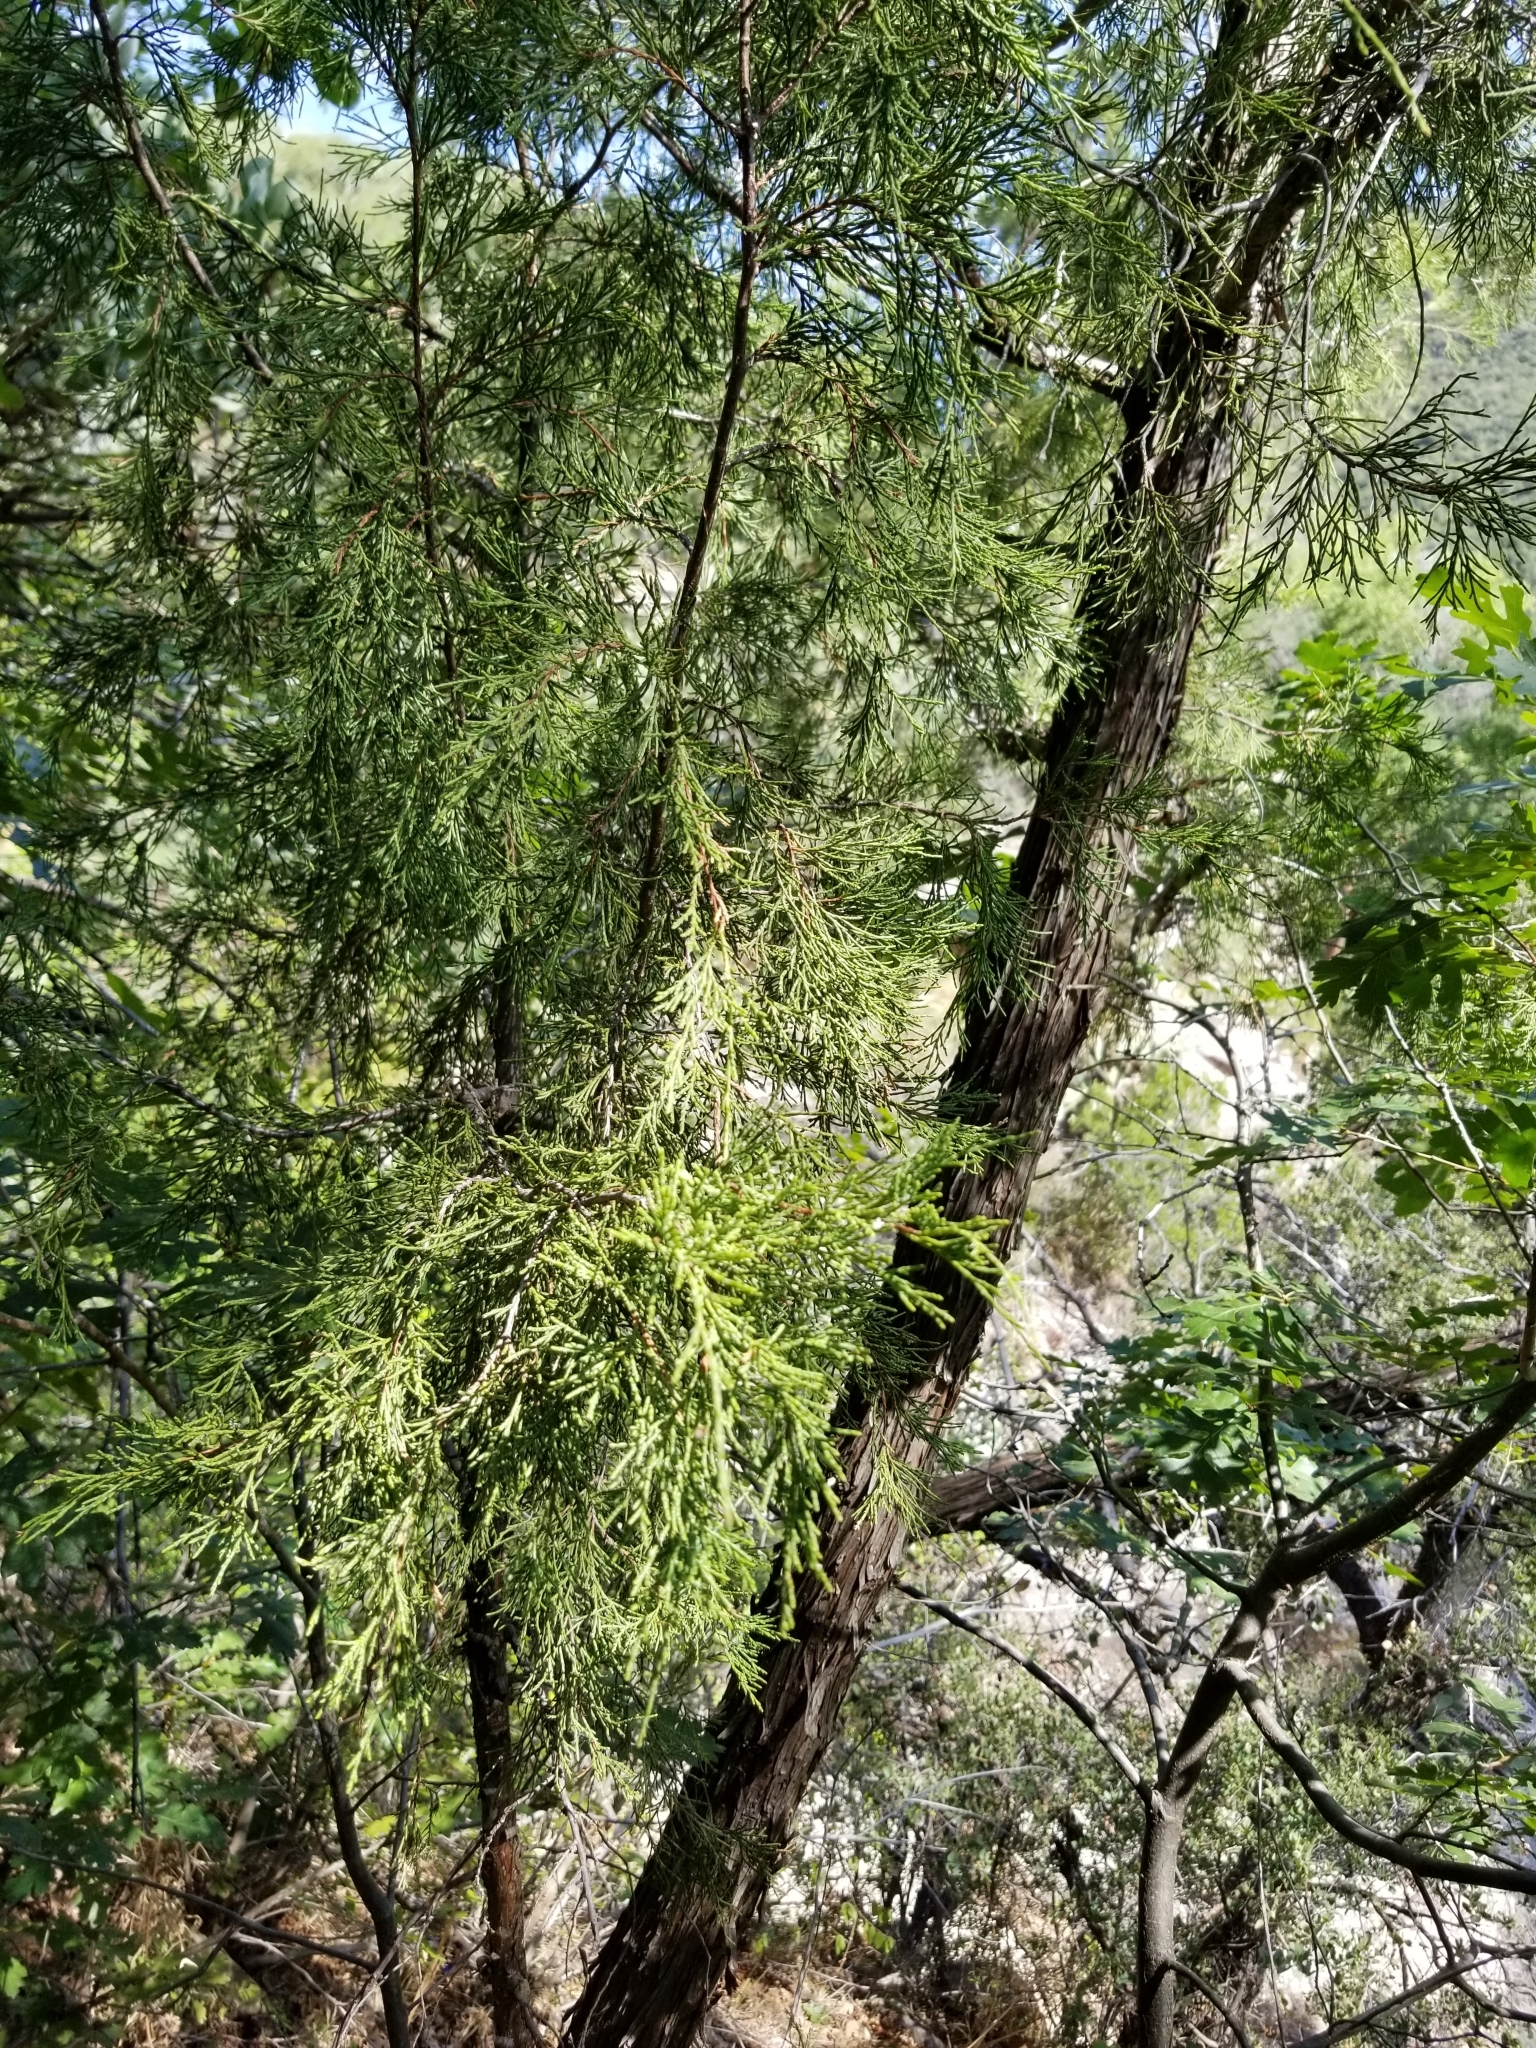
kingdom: Plantae
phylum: Tracheophyta
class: Pinopsida
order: Pinales
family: Cupressaceae
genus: Juniperus
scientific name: Juniperus scopulorum
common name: Rocky mountain juniper
